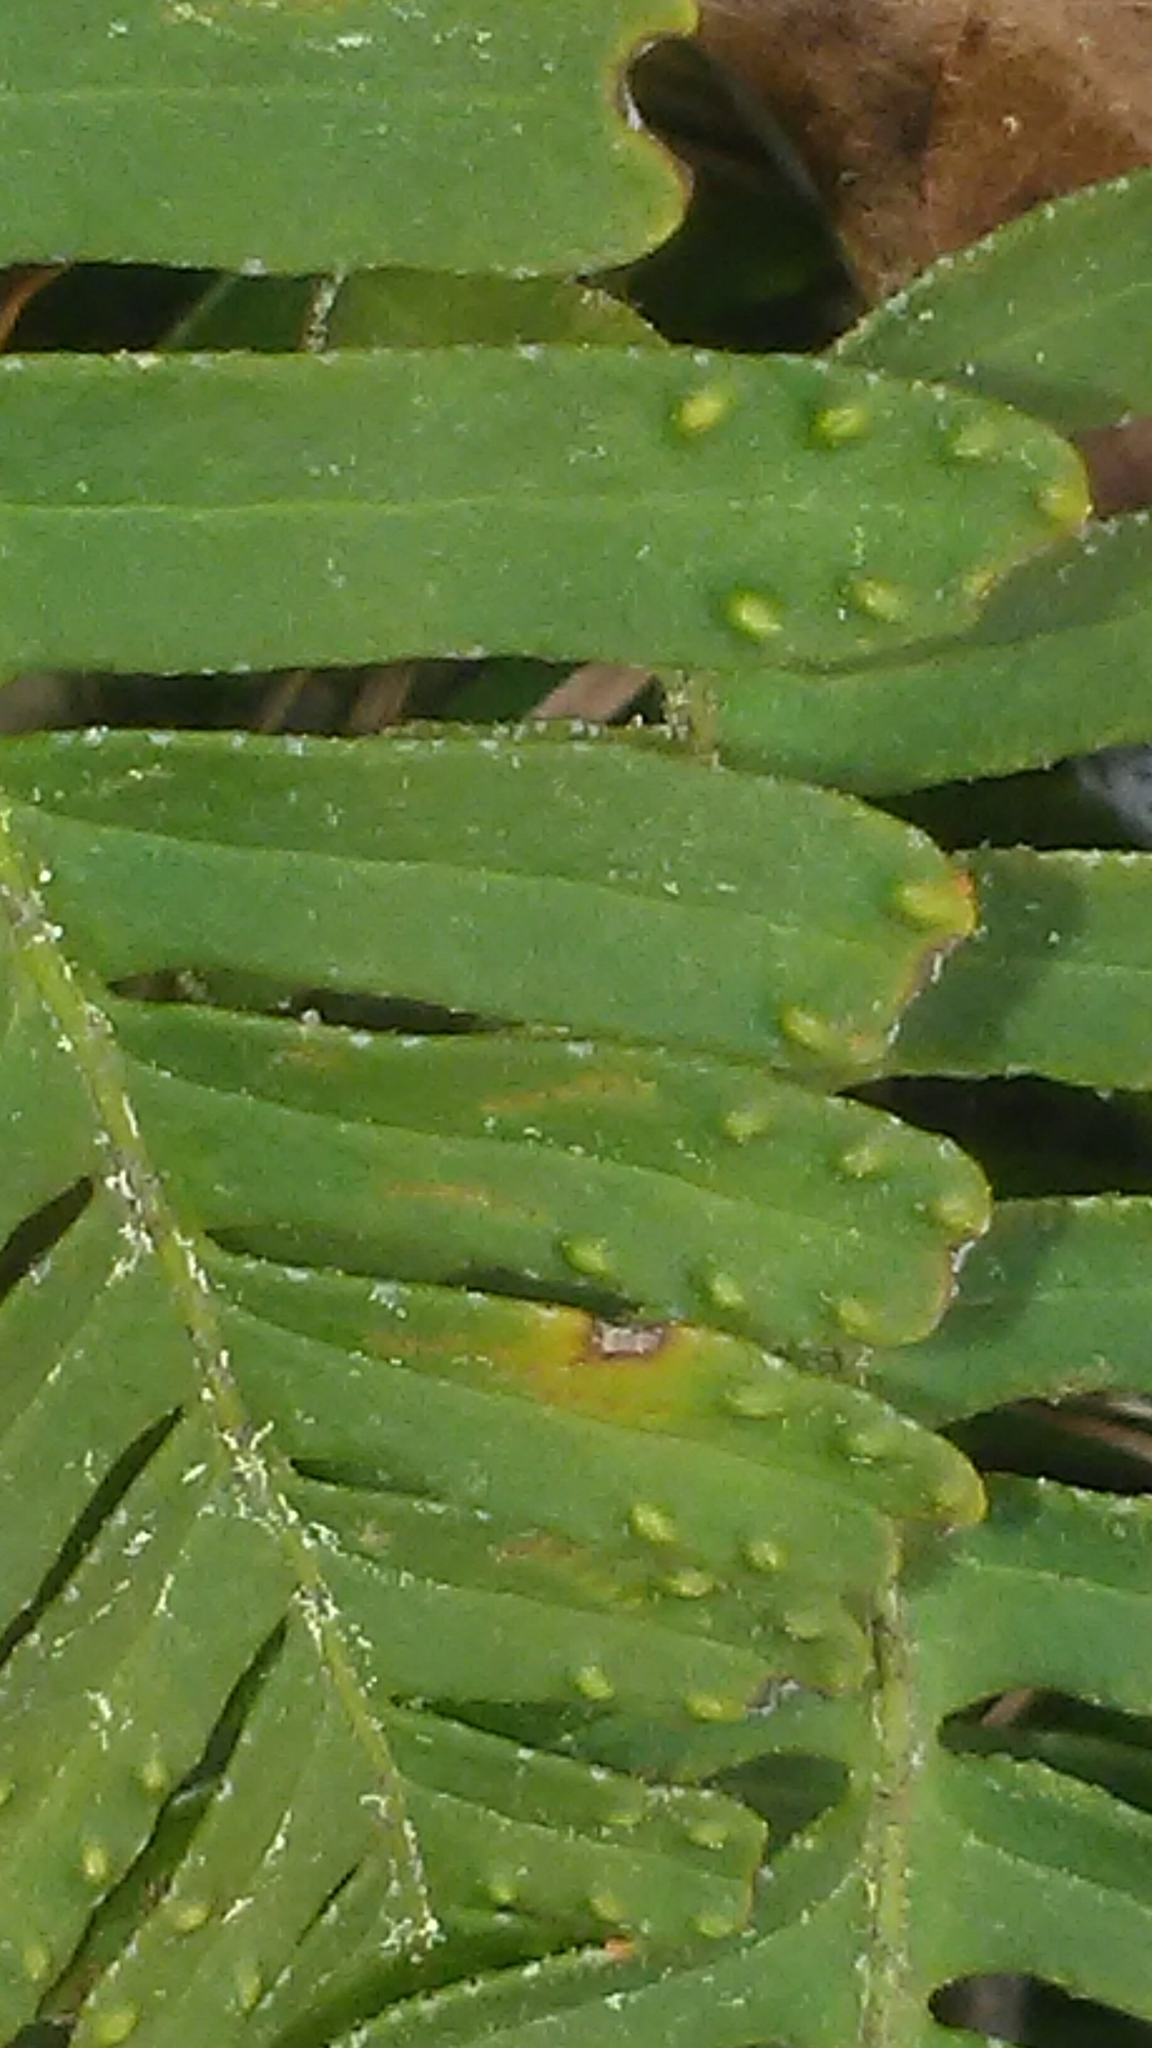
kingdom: Plantae
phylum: Tracheophyta
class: Polypodiopsida
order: Polypodiales
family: Polypodiaceae
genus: Pleopeltis
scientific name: Pleopeltis michauxiana
